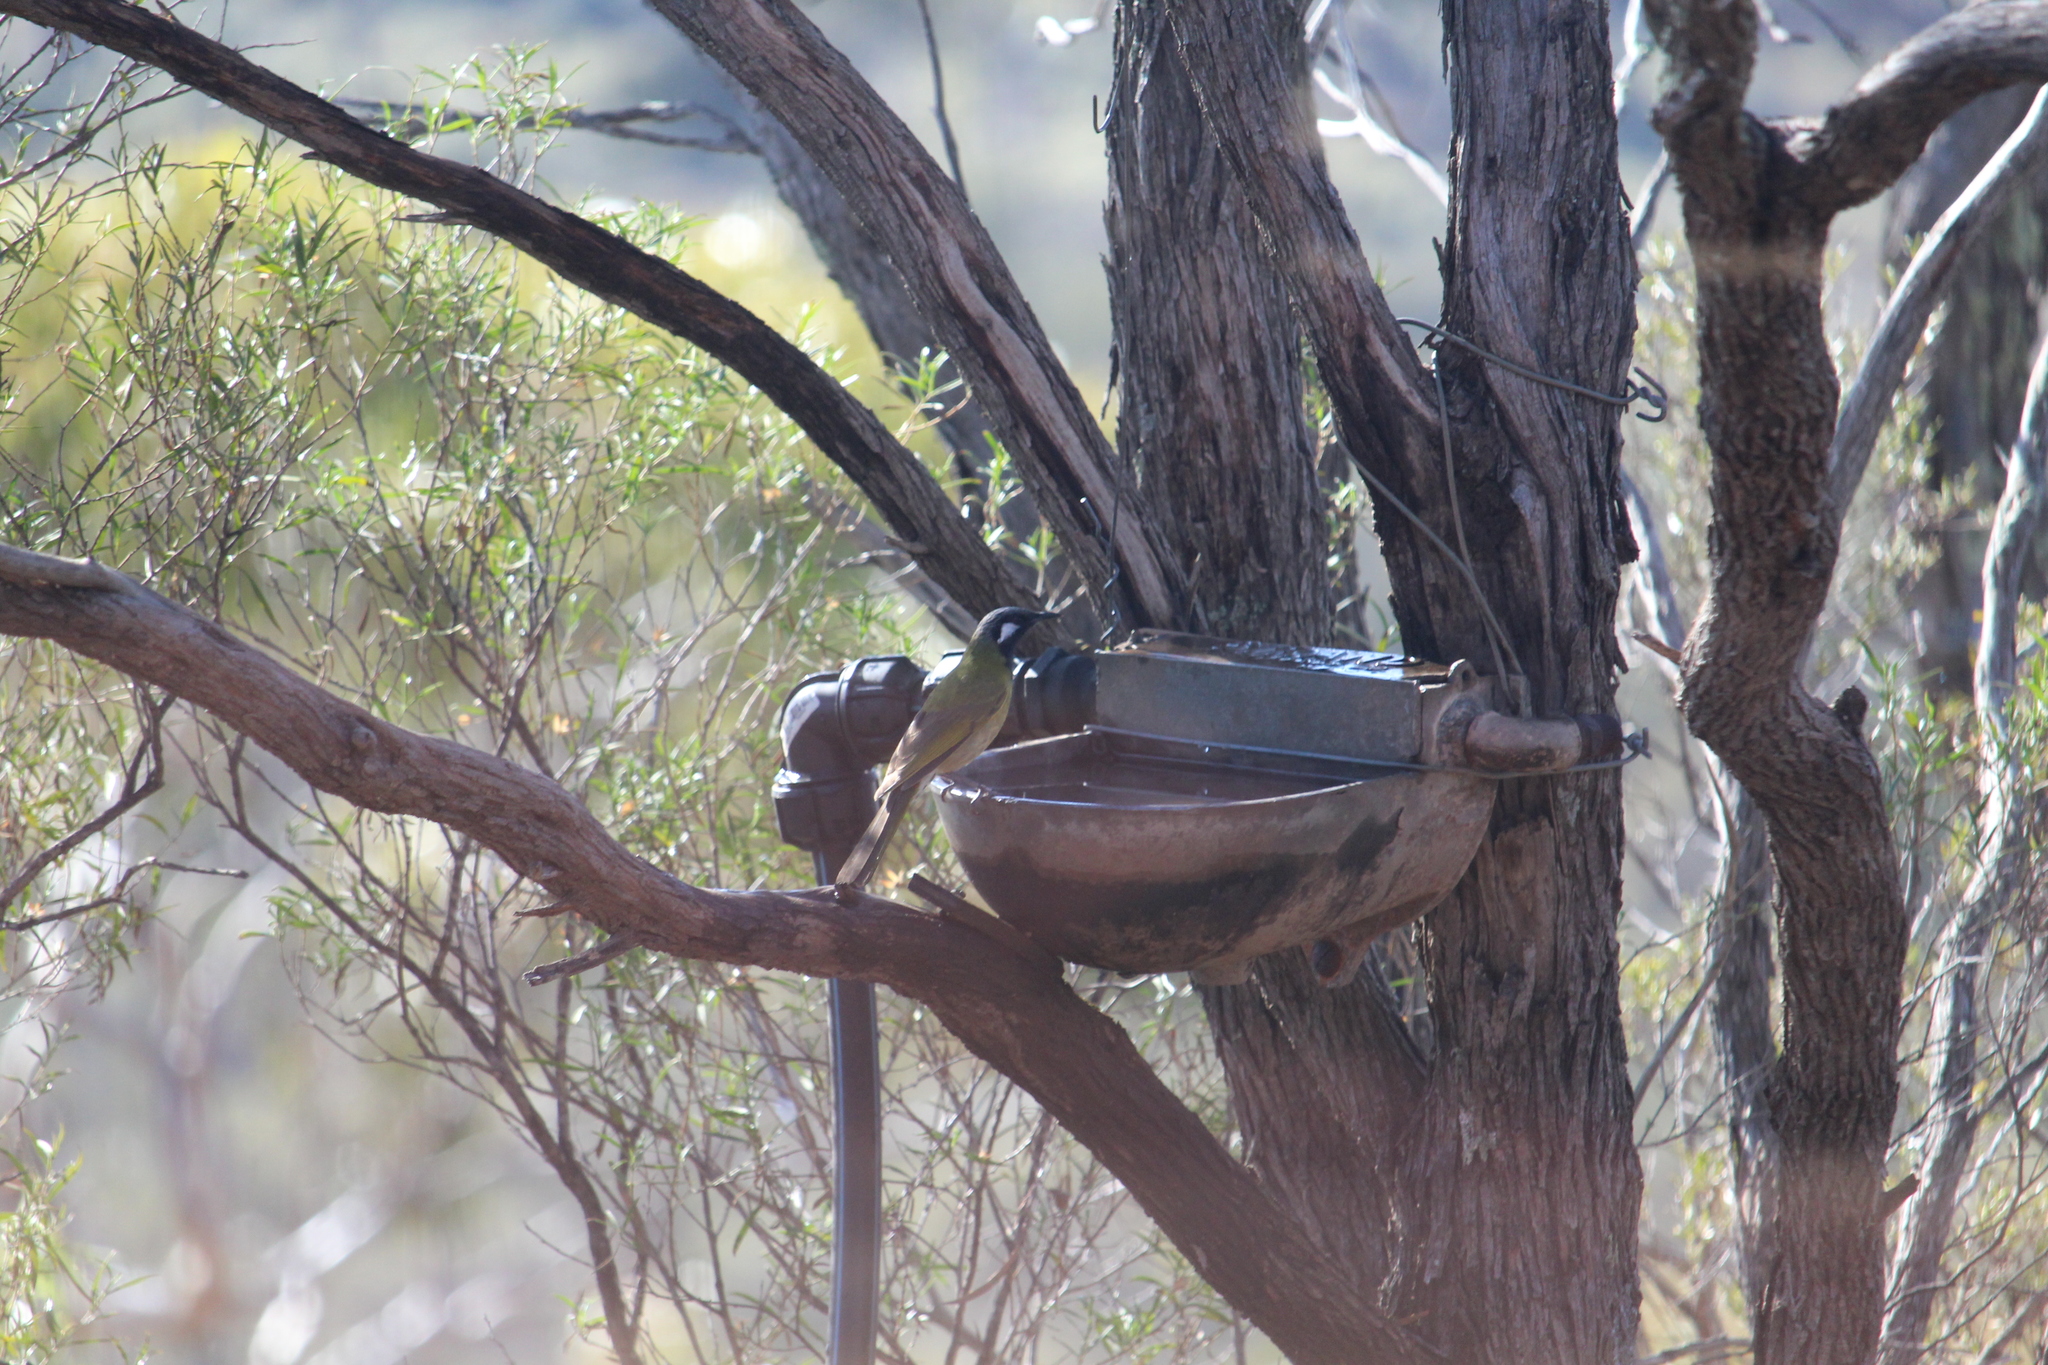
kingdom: Animalia
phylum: Chordata
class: Aves
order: Passeriformes
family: Meliphagidae
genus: Nesoptilotis
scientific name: Nesoptilotis leucotis
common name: White-eared honeyeater
